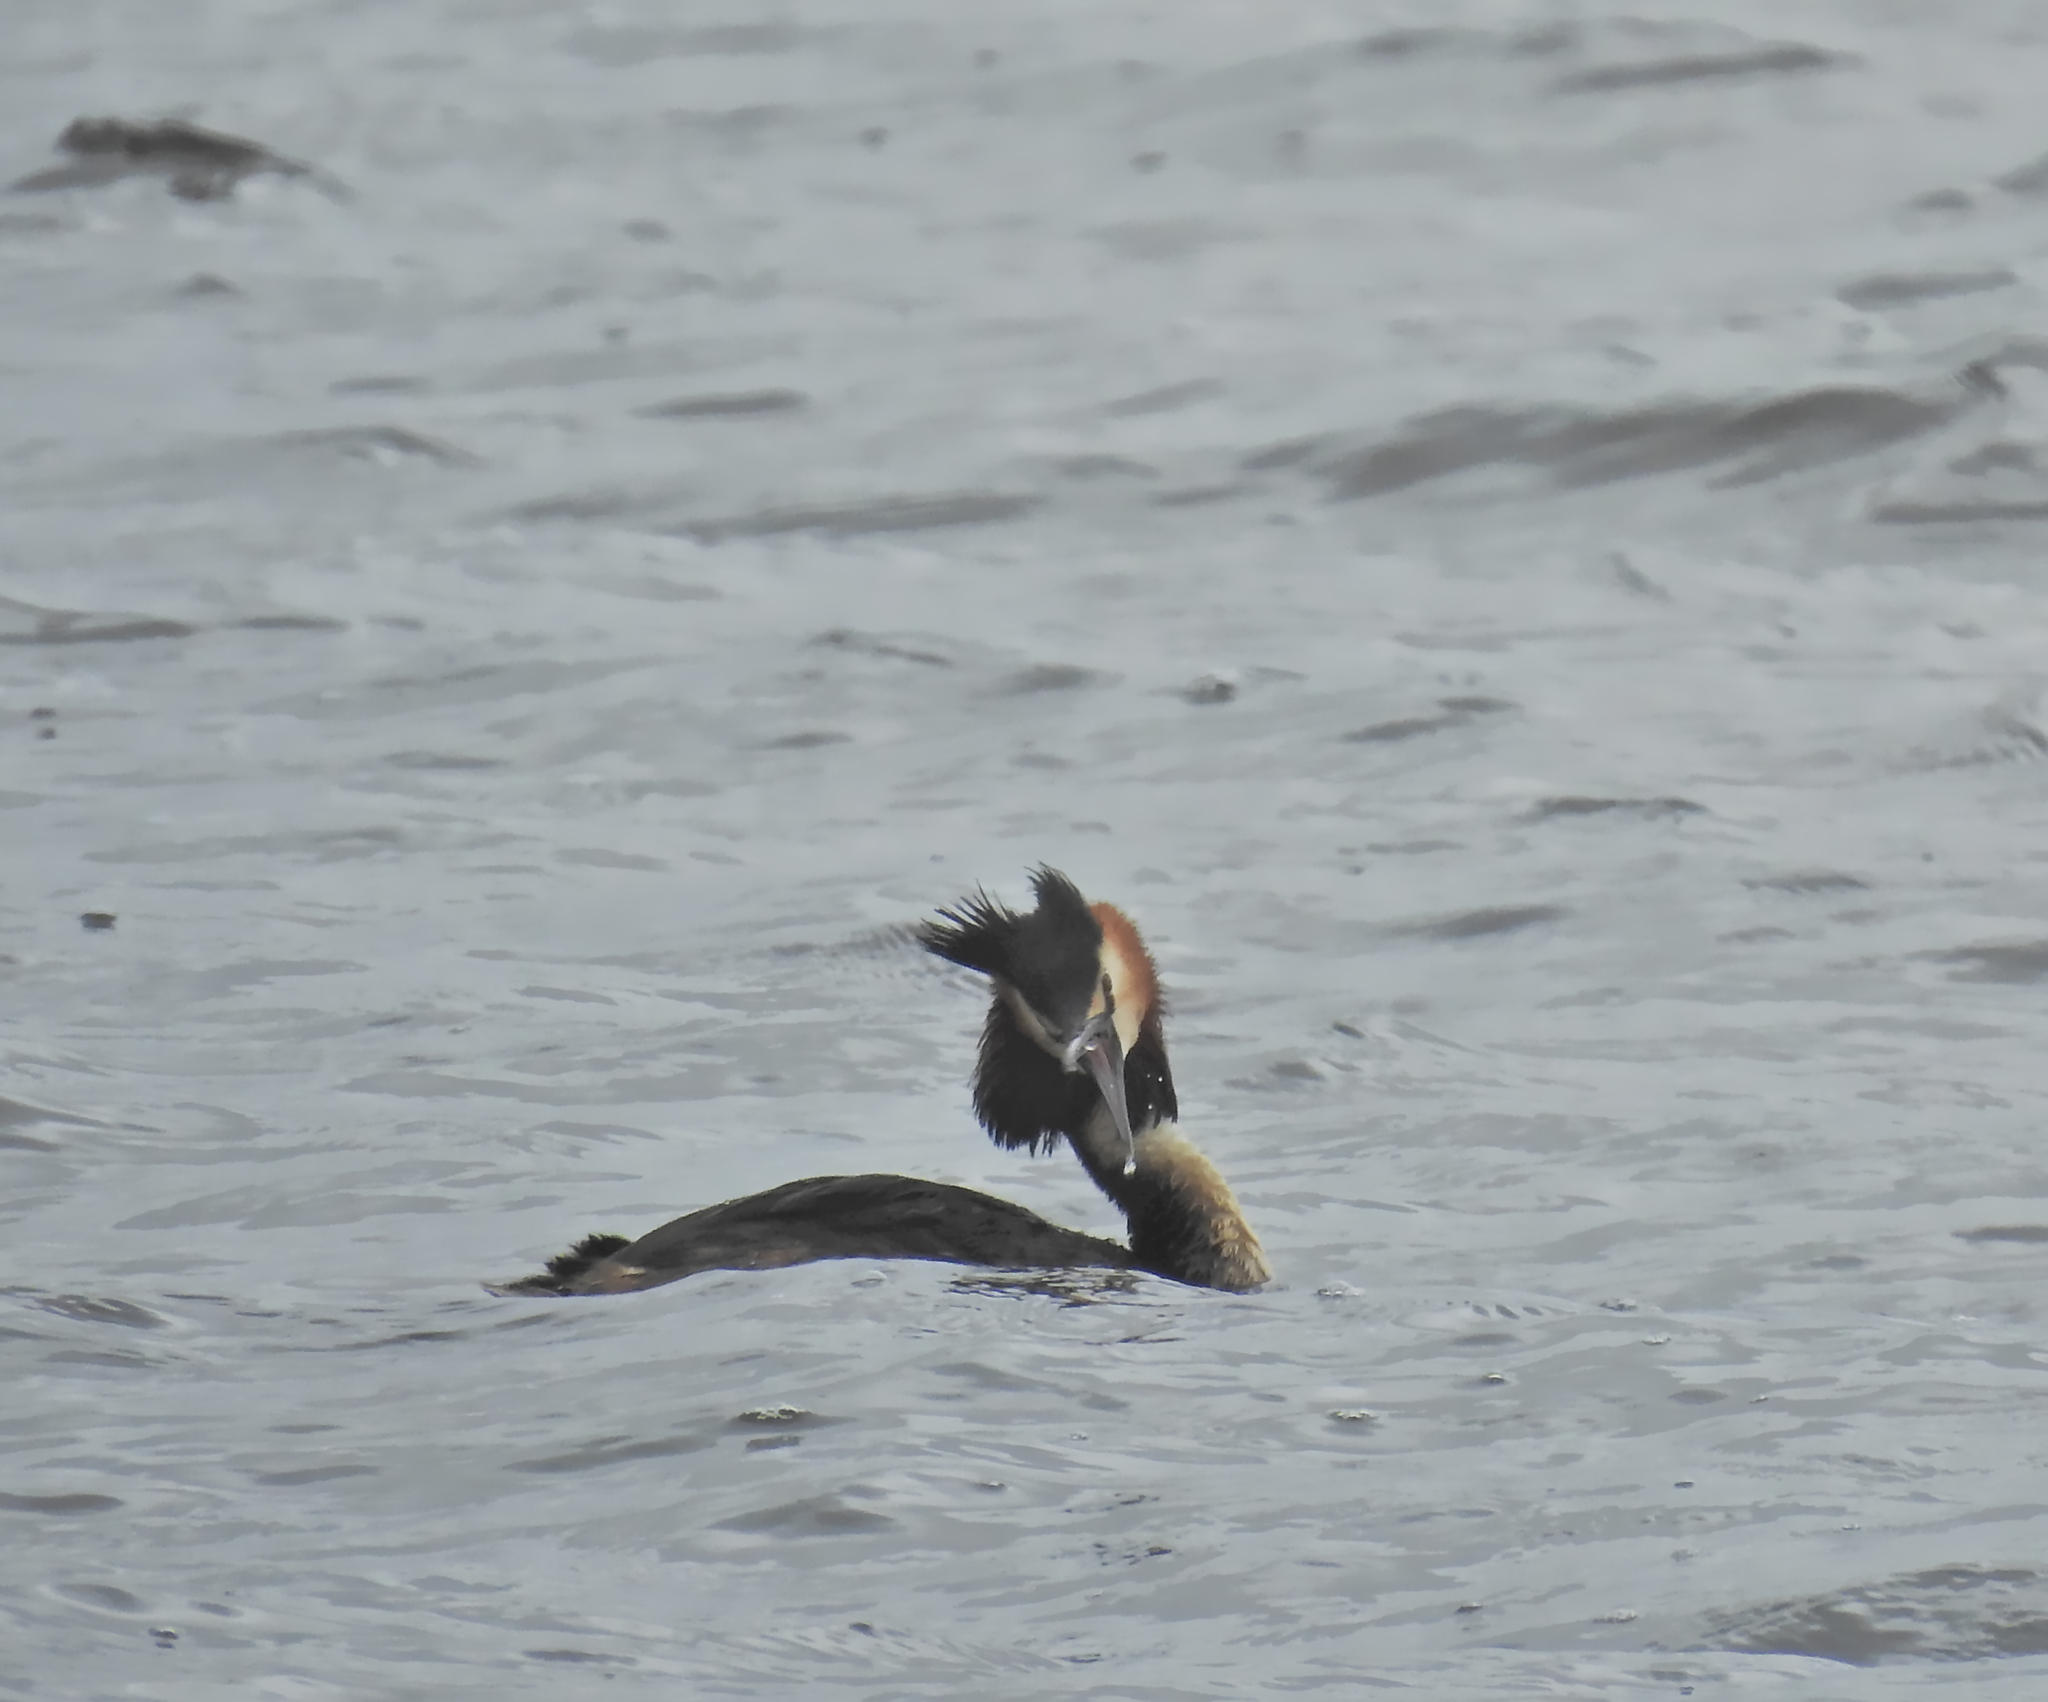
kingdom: Animalia
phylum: Chordata
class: Aves
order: Podicipediformes
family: Podicipedidae
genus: Podiceps
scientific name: Podiceps cristatus
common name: Great crested grebe
